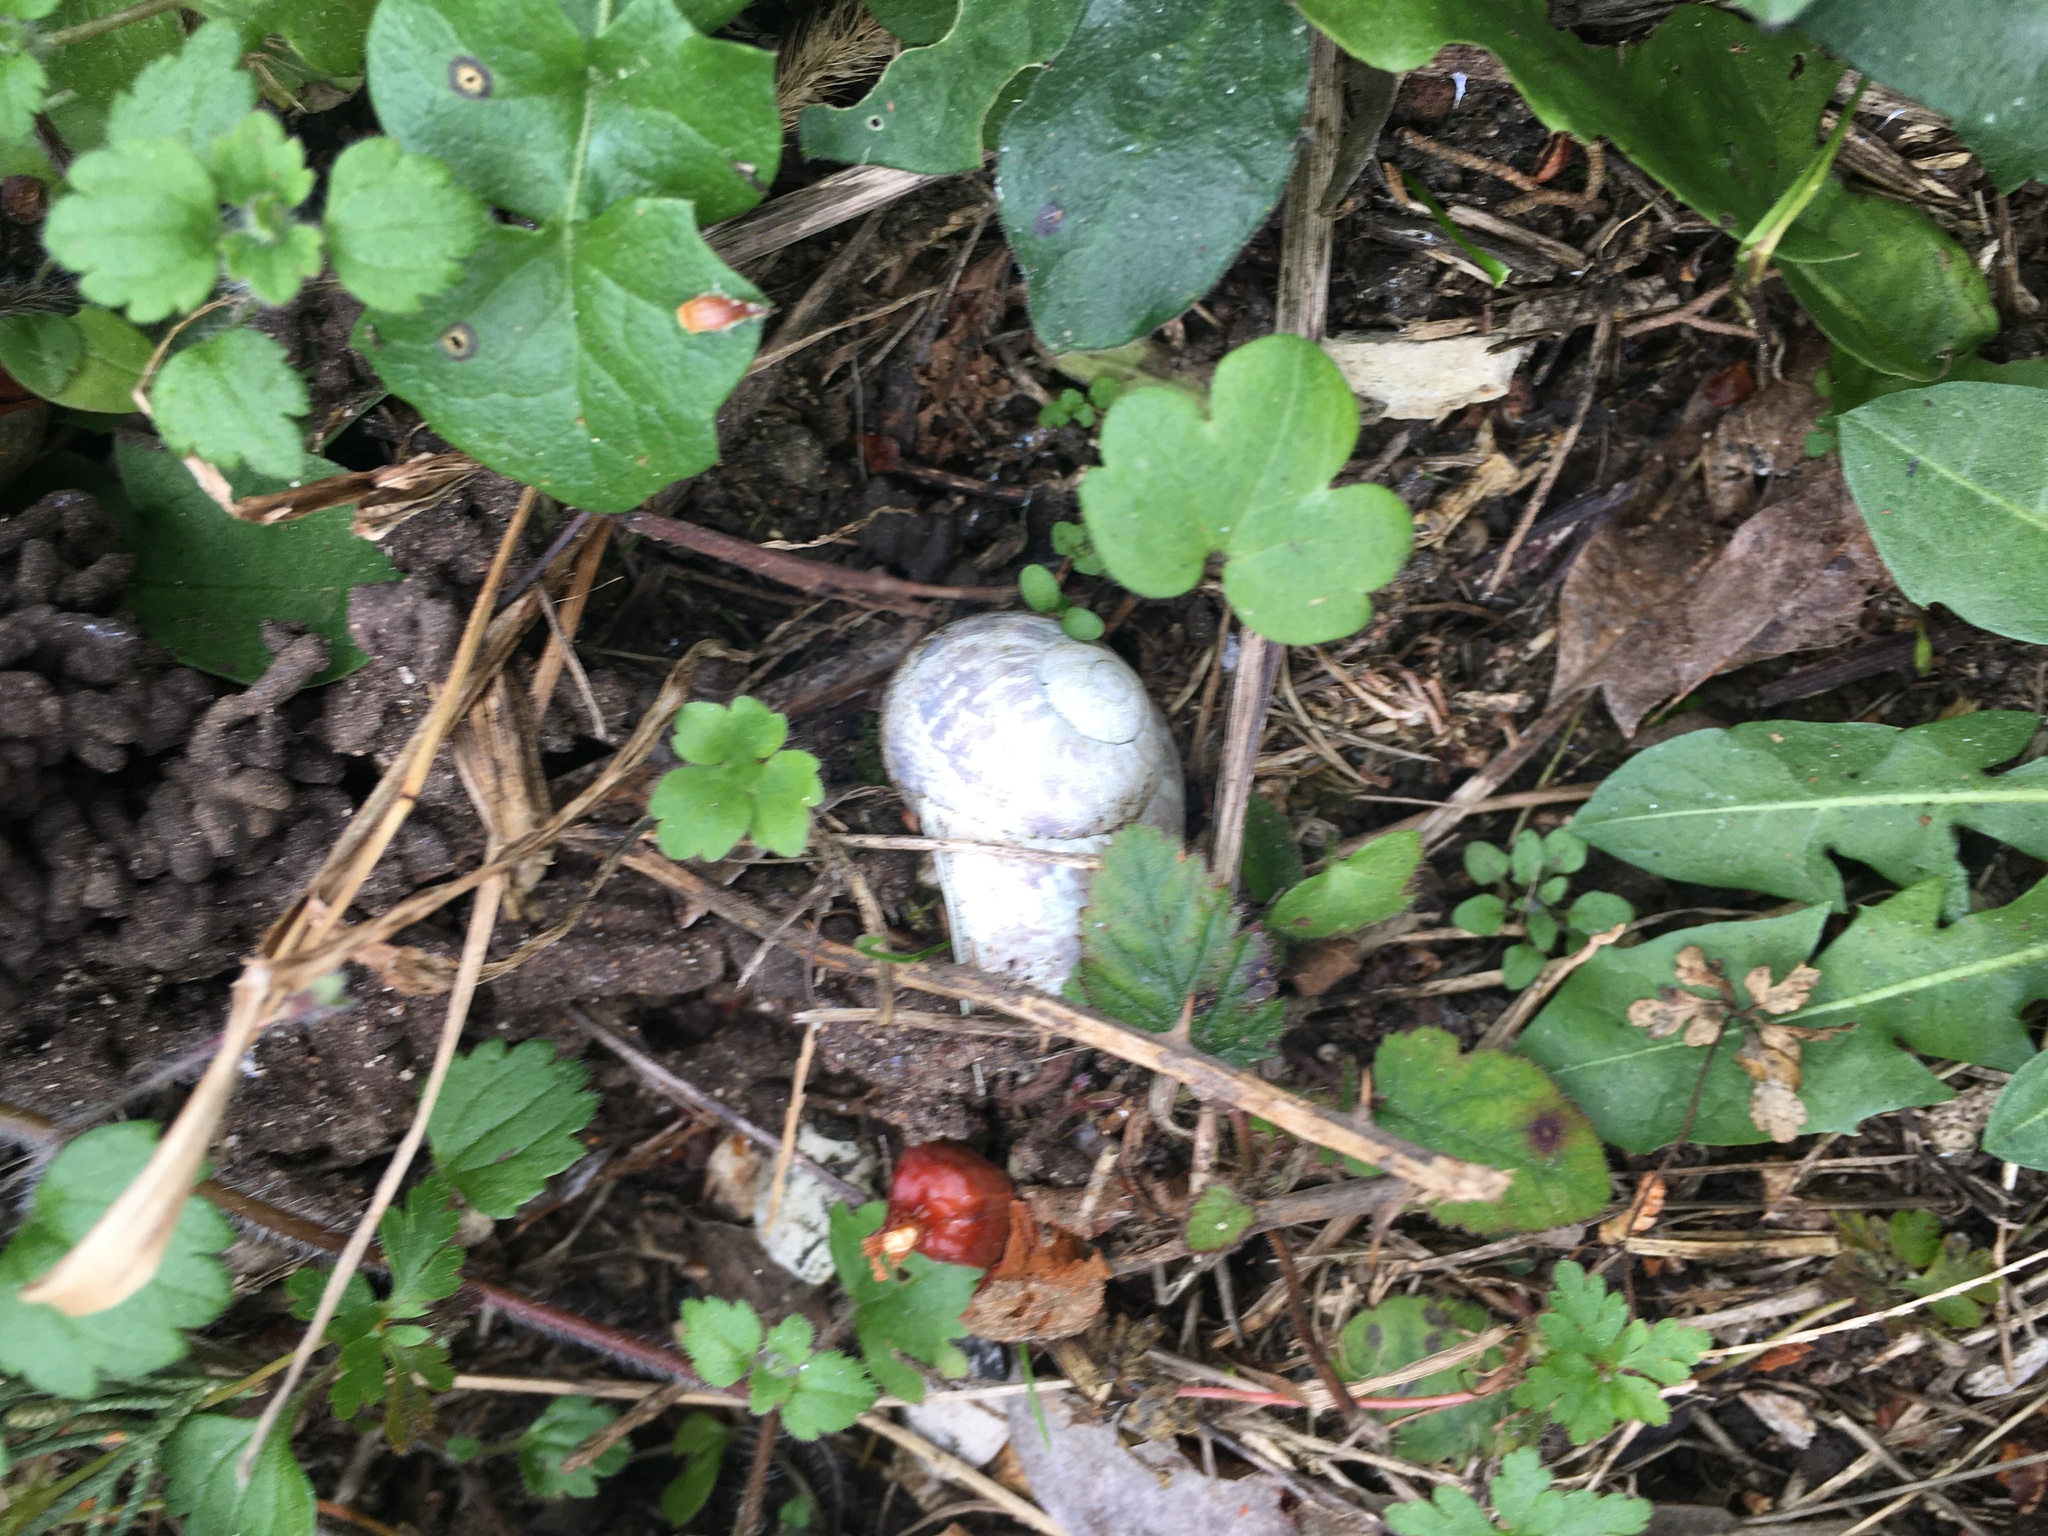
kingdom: Animalia
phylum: Mollusca
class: Gastropoda
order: Stylommatophora
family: Helicidae
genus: Cornu
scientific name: Cornu aspersum
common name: Brown garden snail
